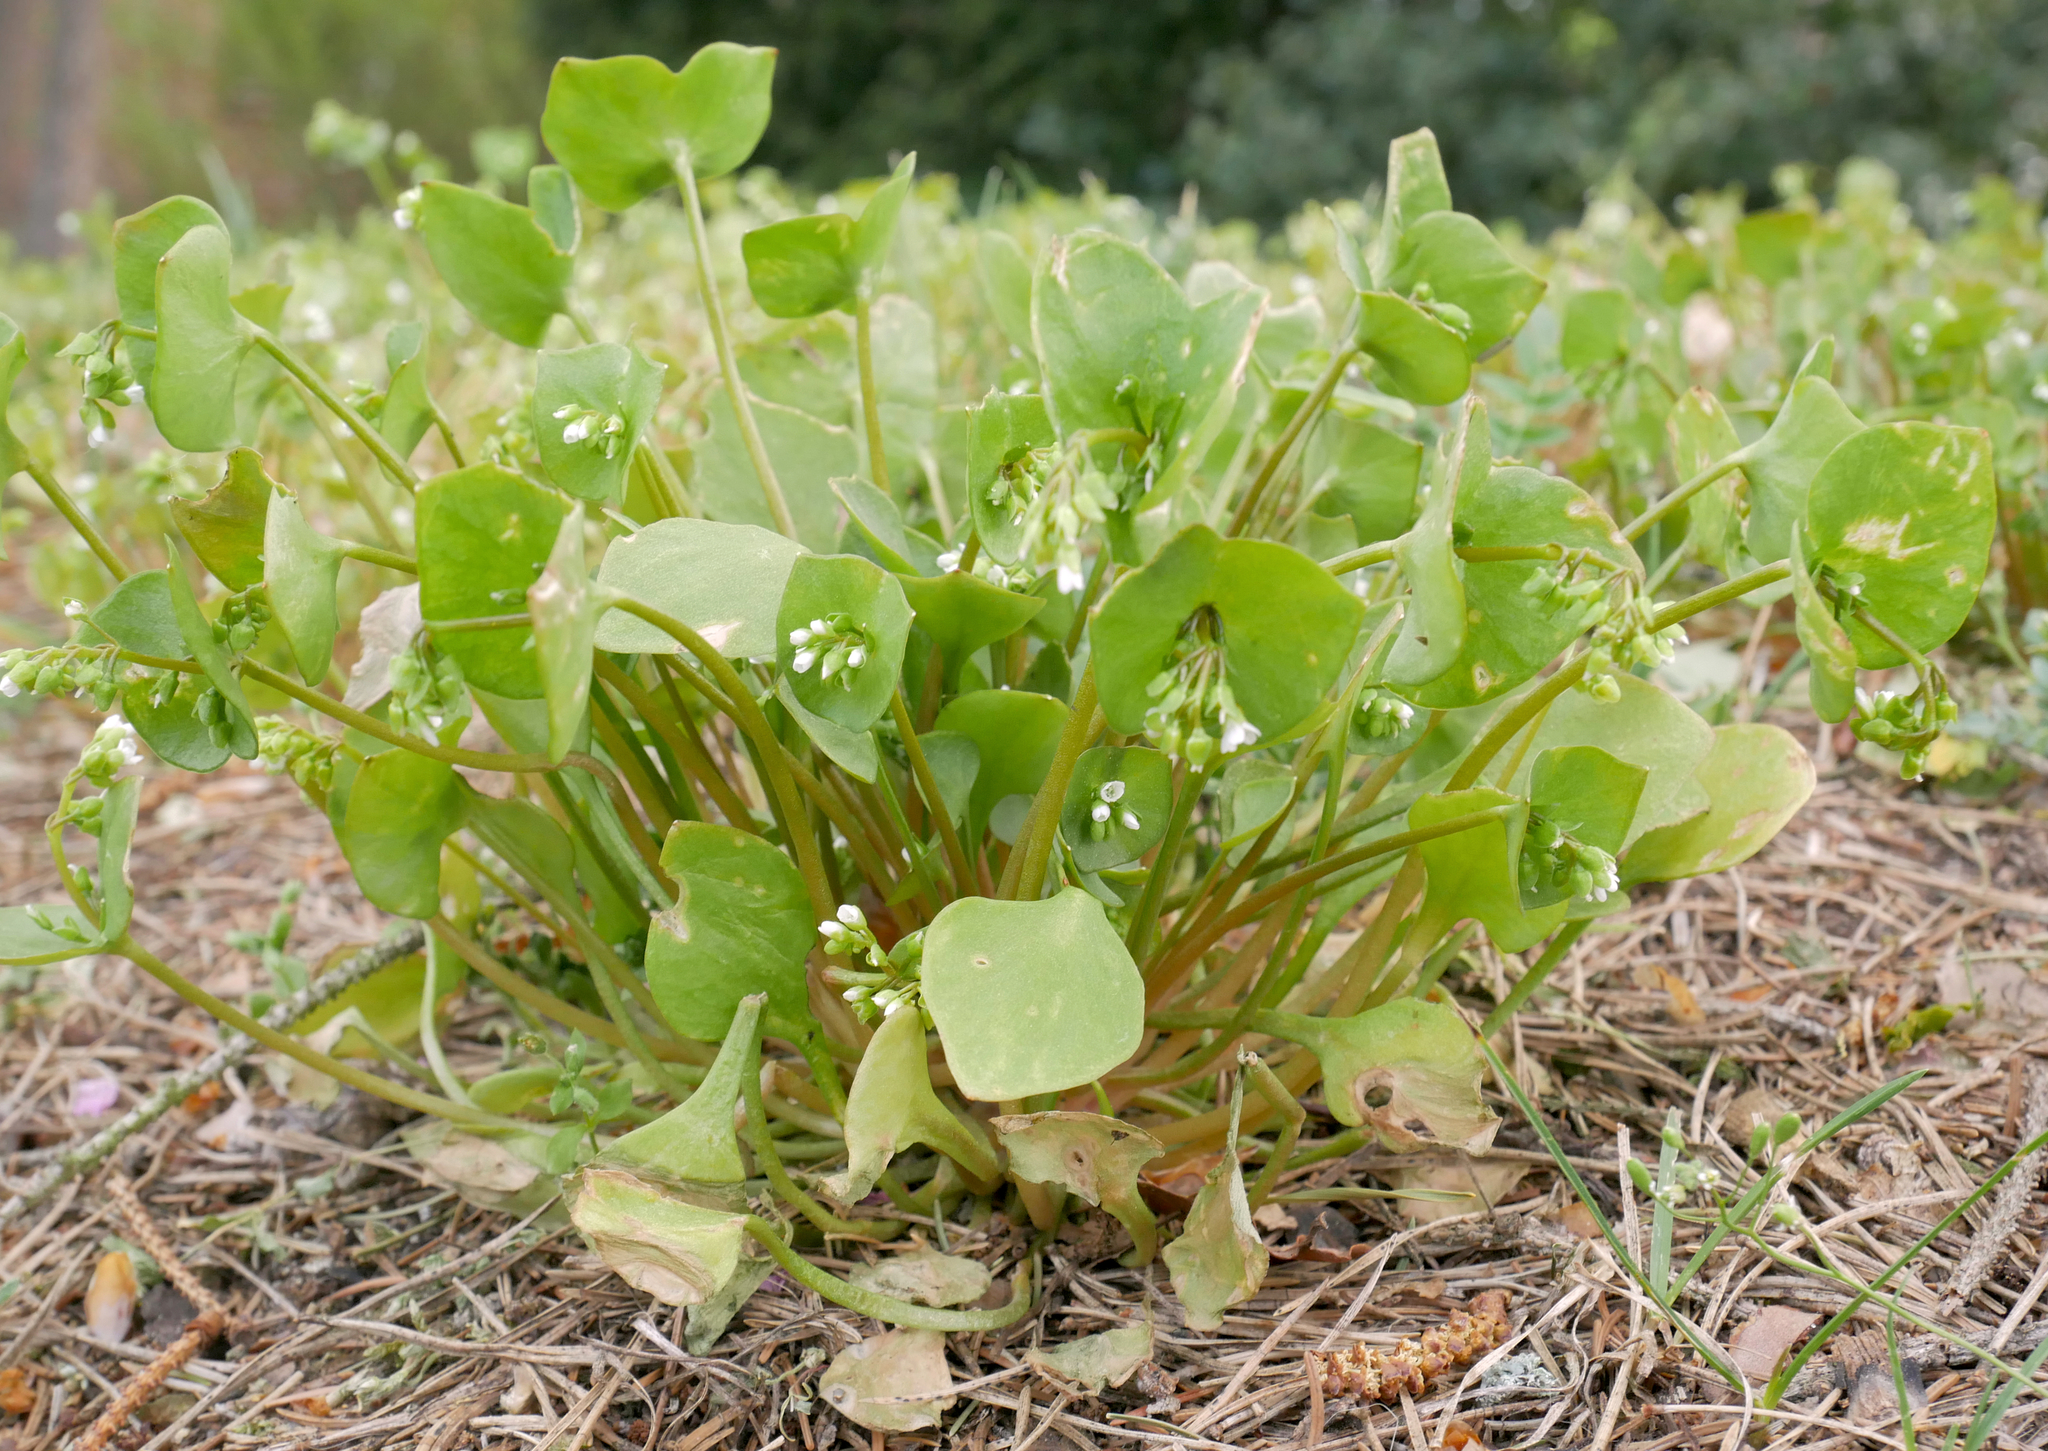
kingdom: Plantae
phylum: Tracheophyta
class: Magnoliopsida
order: Caryophyllales
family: Montiaceae
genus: Claytonia
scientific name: Claytonia perfoliata
